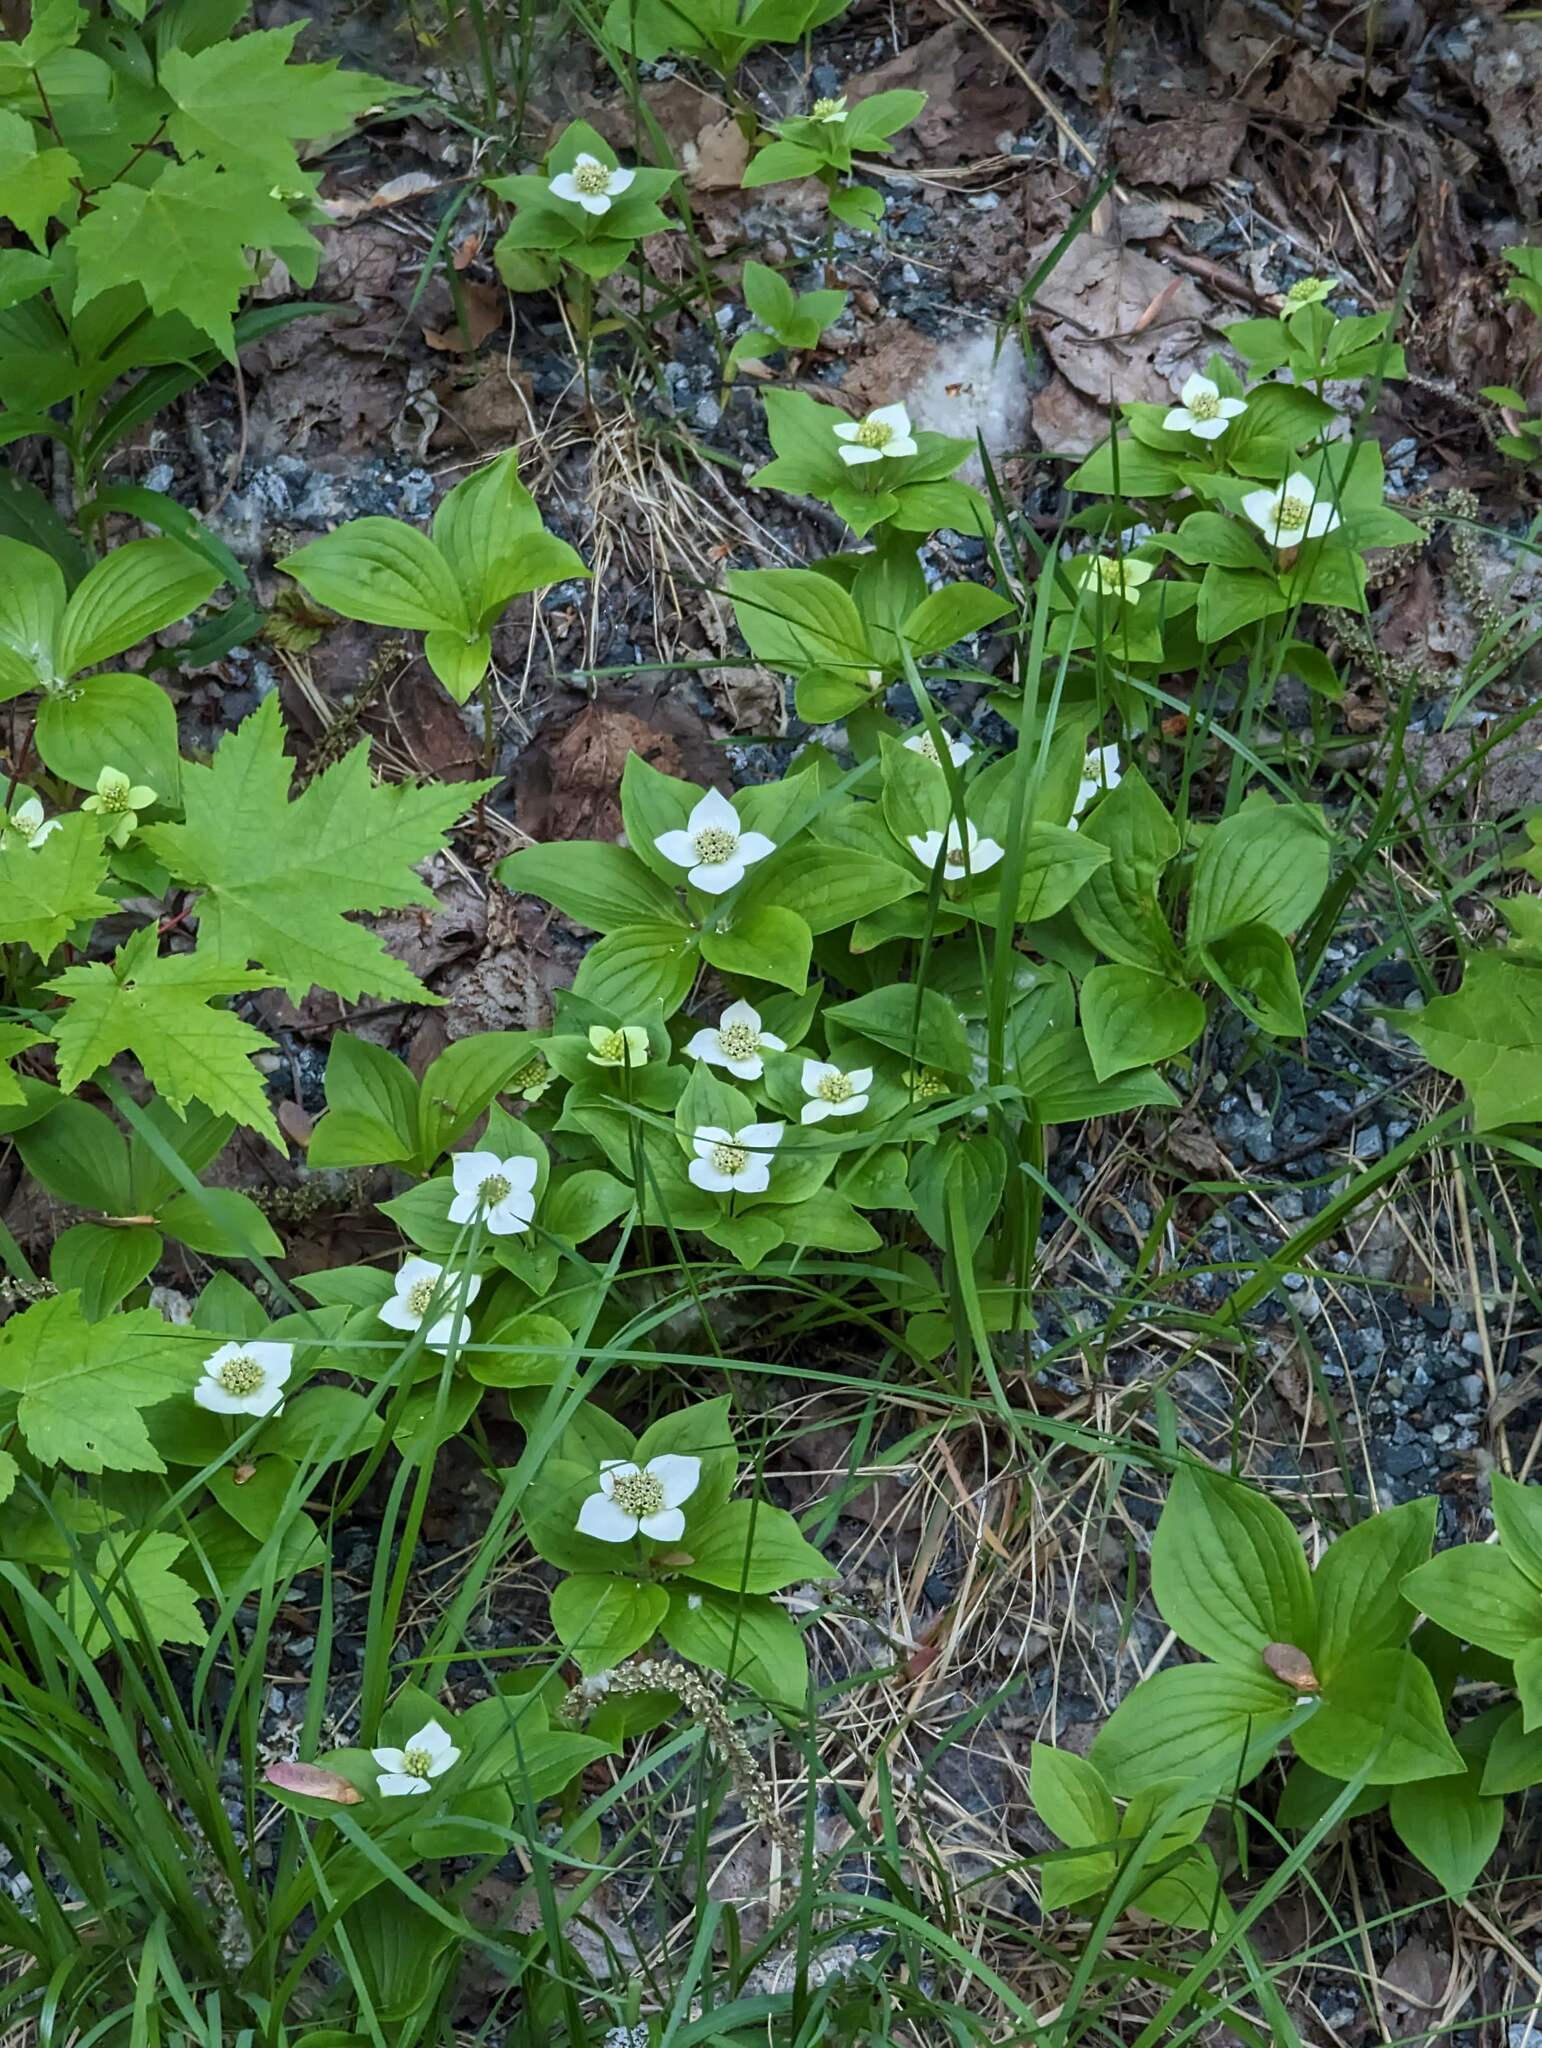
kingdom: Plantae
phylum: Tracheophyta
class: Magnoliopsida
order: Cornales
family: Cornaceae
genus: Cornus
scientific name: Cornus canadensis
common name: Creeping dogwood
